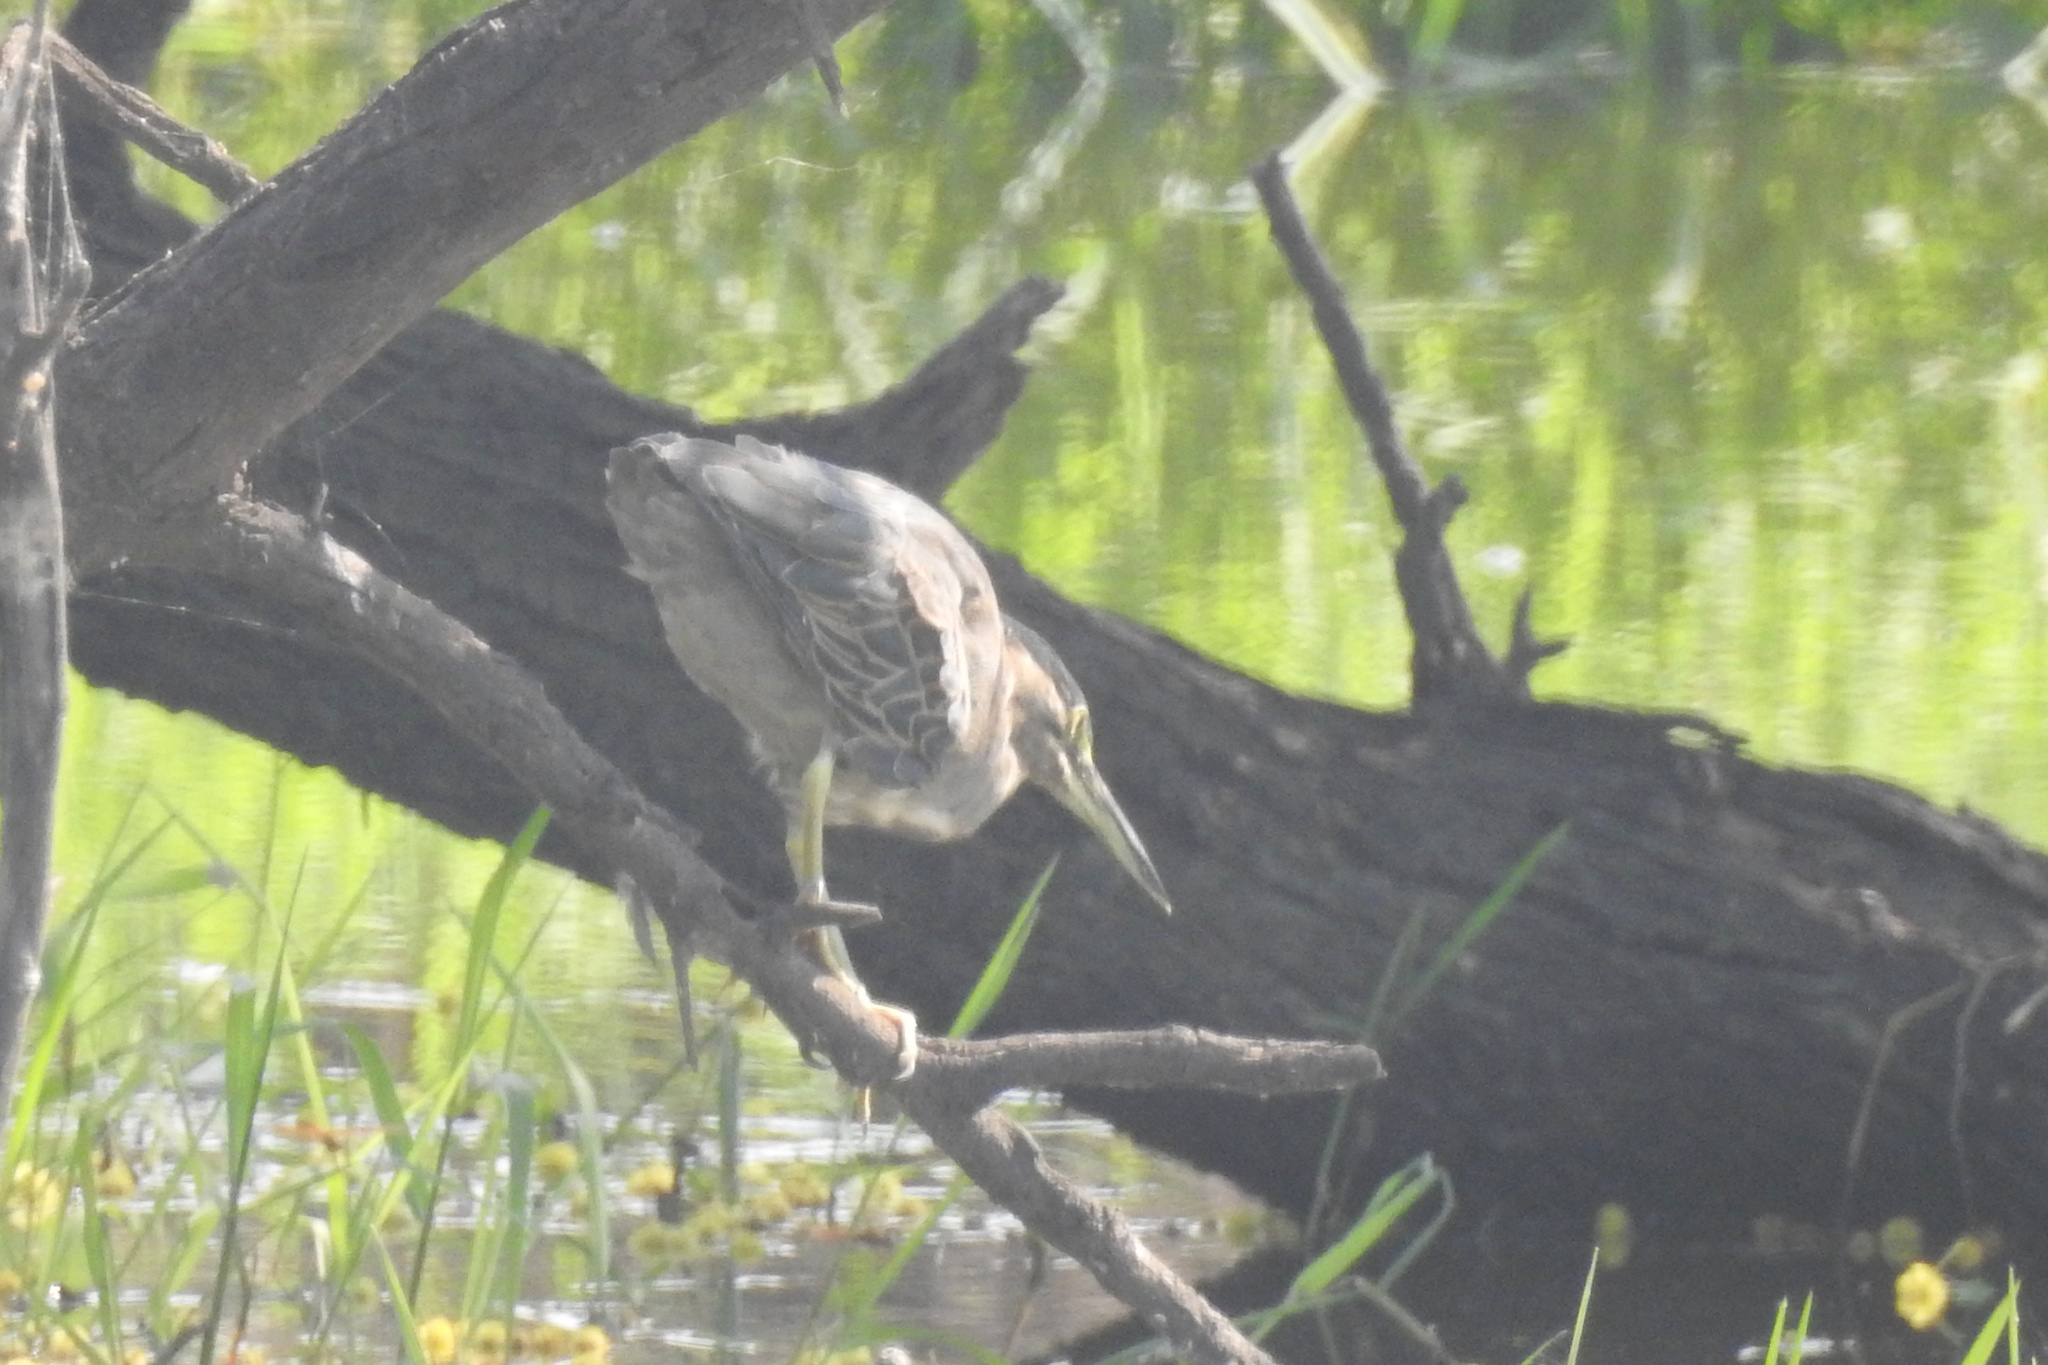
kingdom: Animalia
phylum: Chordata
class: Aves
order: Pelecaniformes
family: Ardeidae
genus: Butorides
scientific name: Butorides striata
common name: Striated heron
